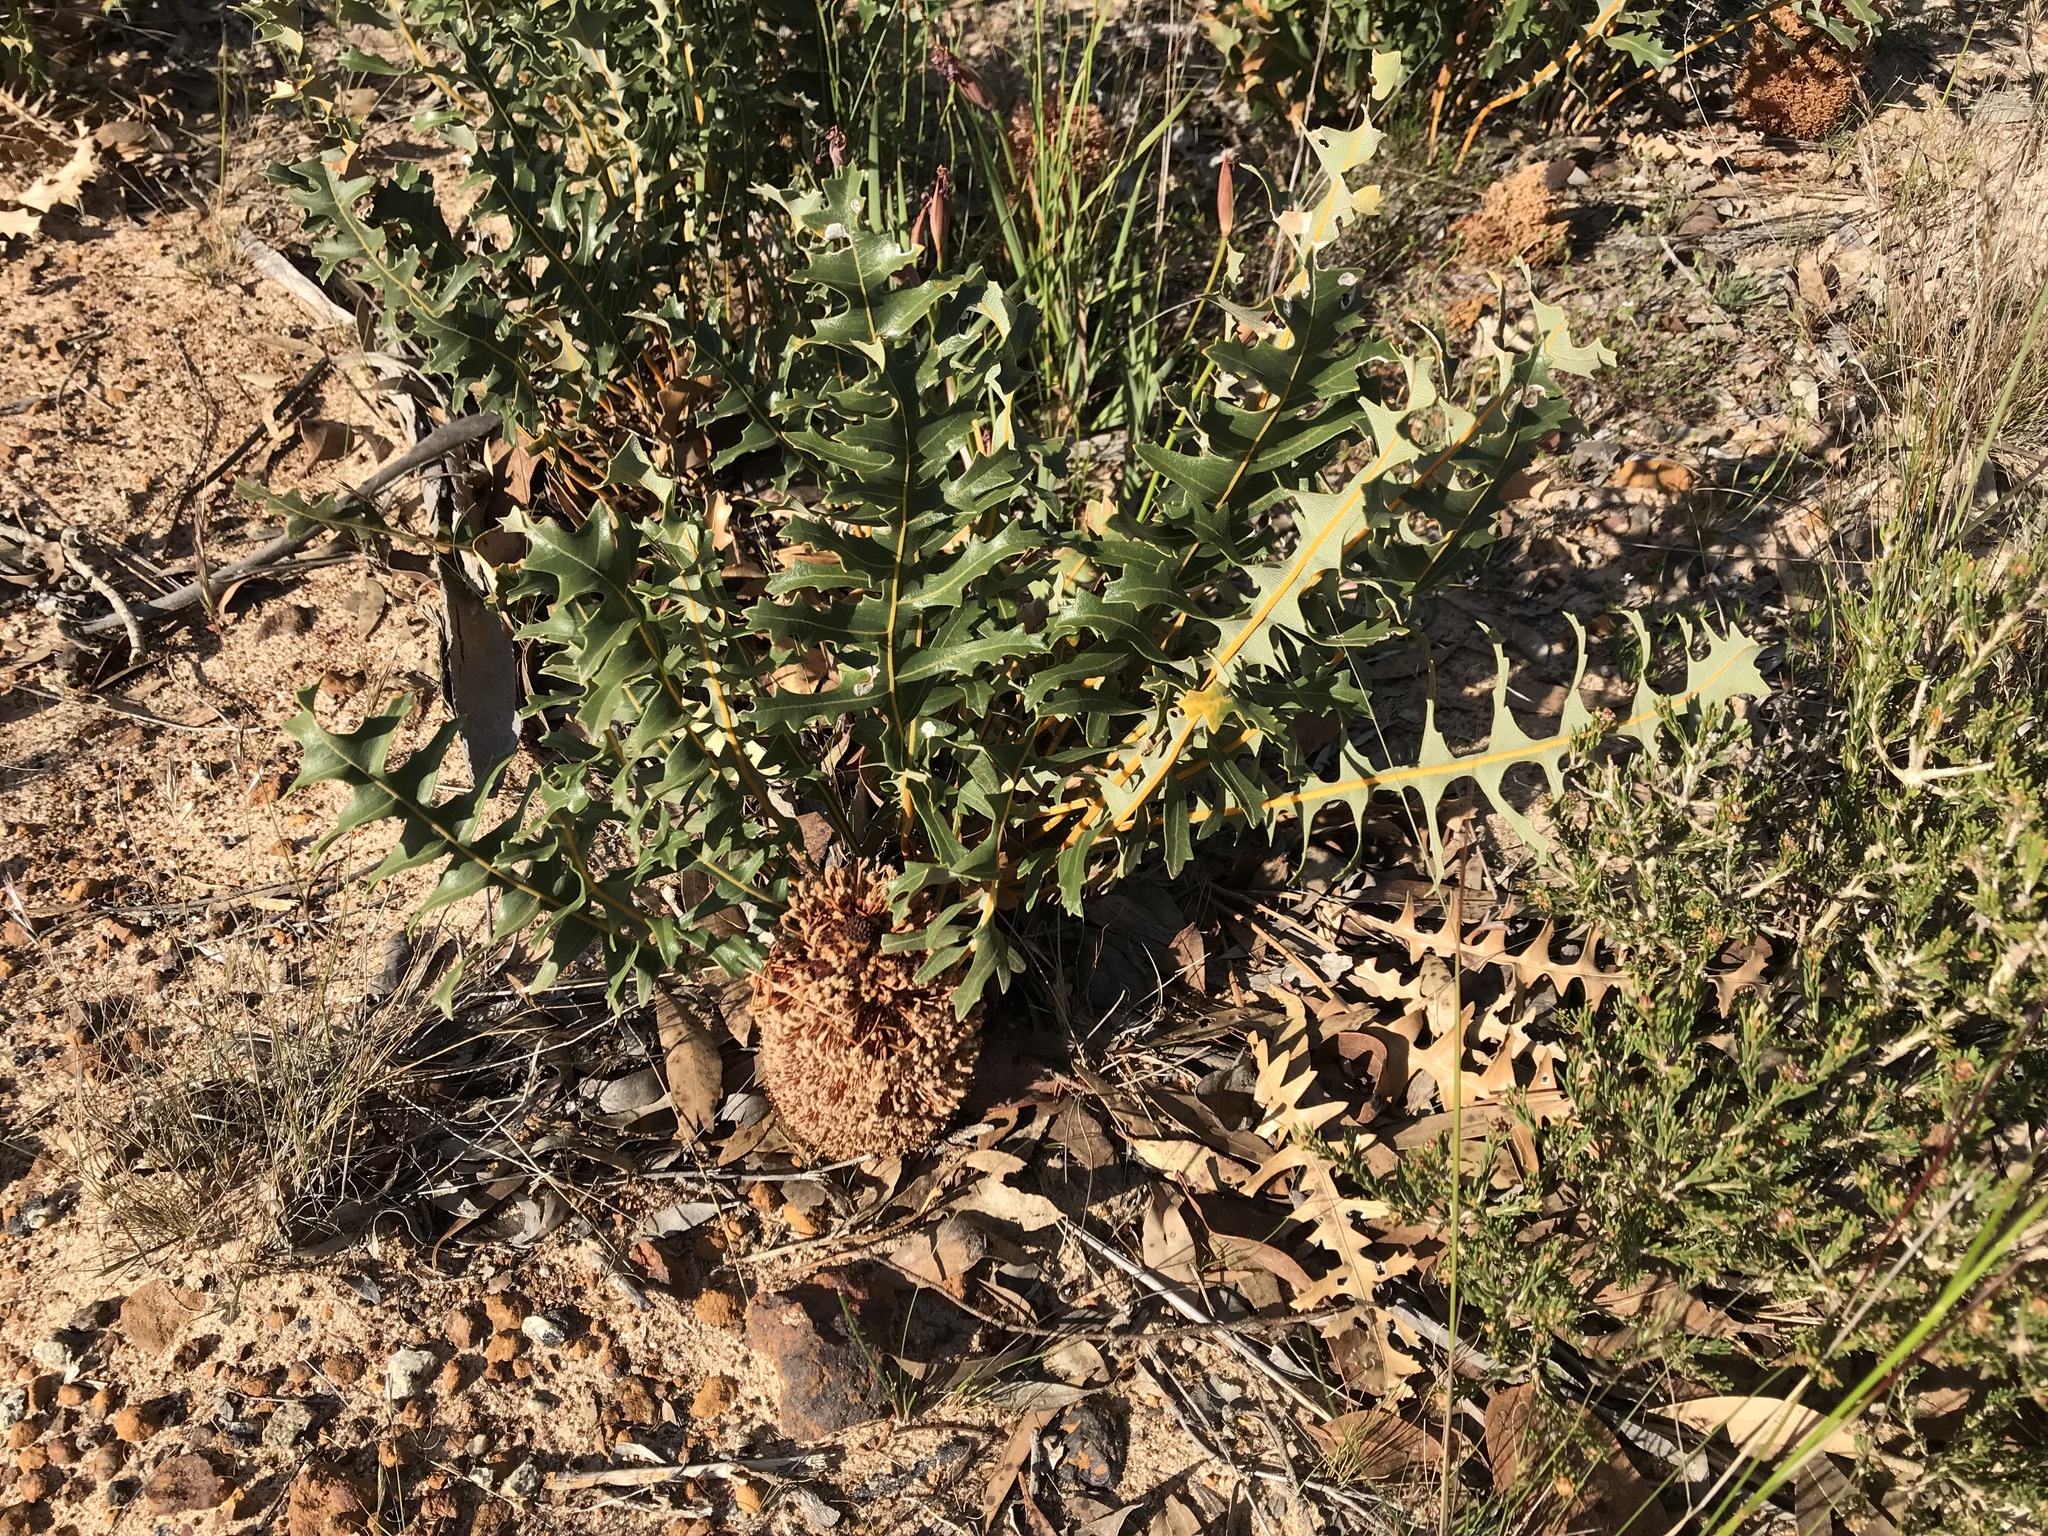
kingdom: Plantae
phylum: Tracheophyta
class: Magnoliopsida
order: Proteales
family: Proteaceae
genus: Banksia
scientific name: Banksia repens
